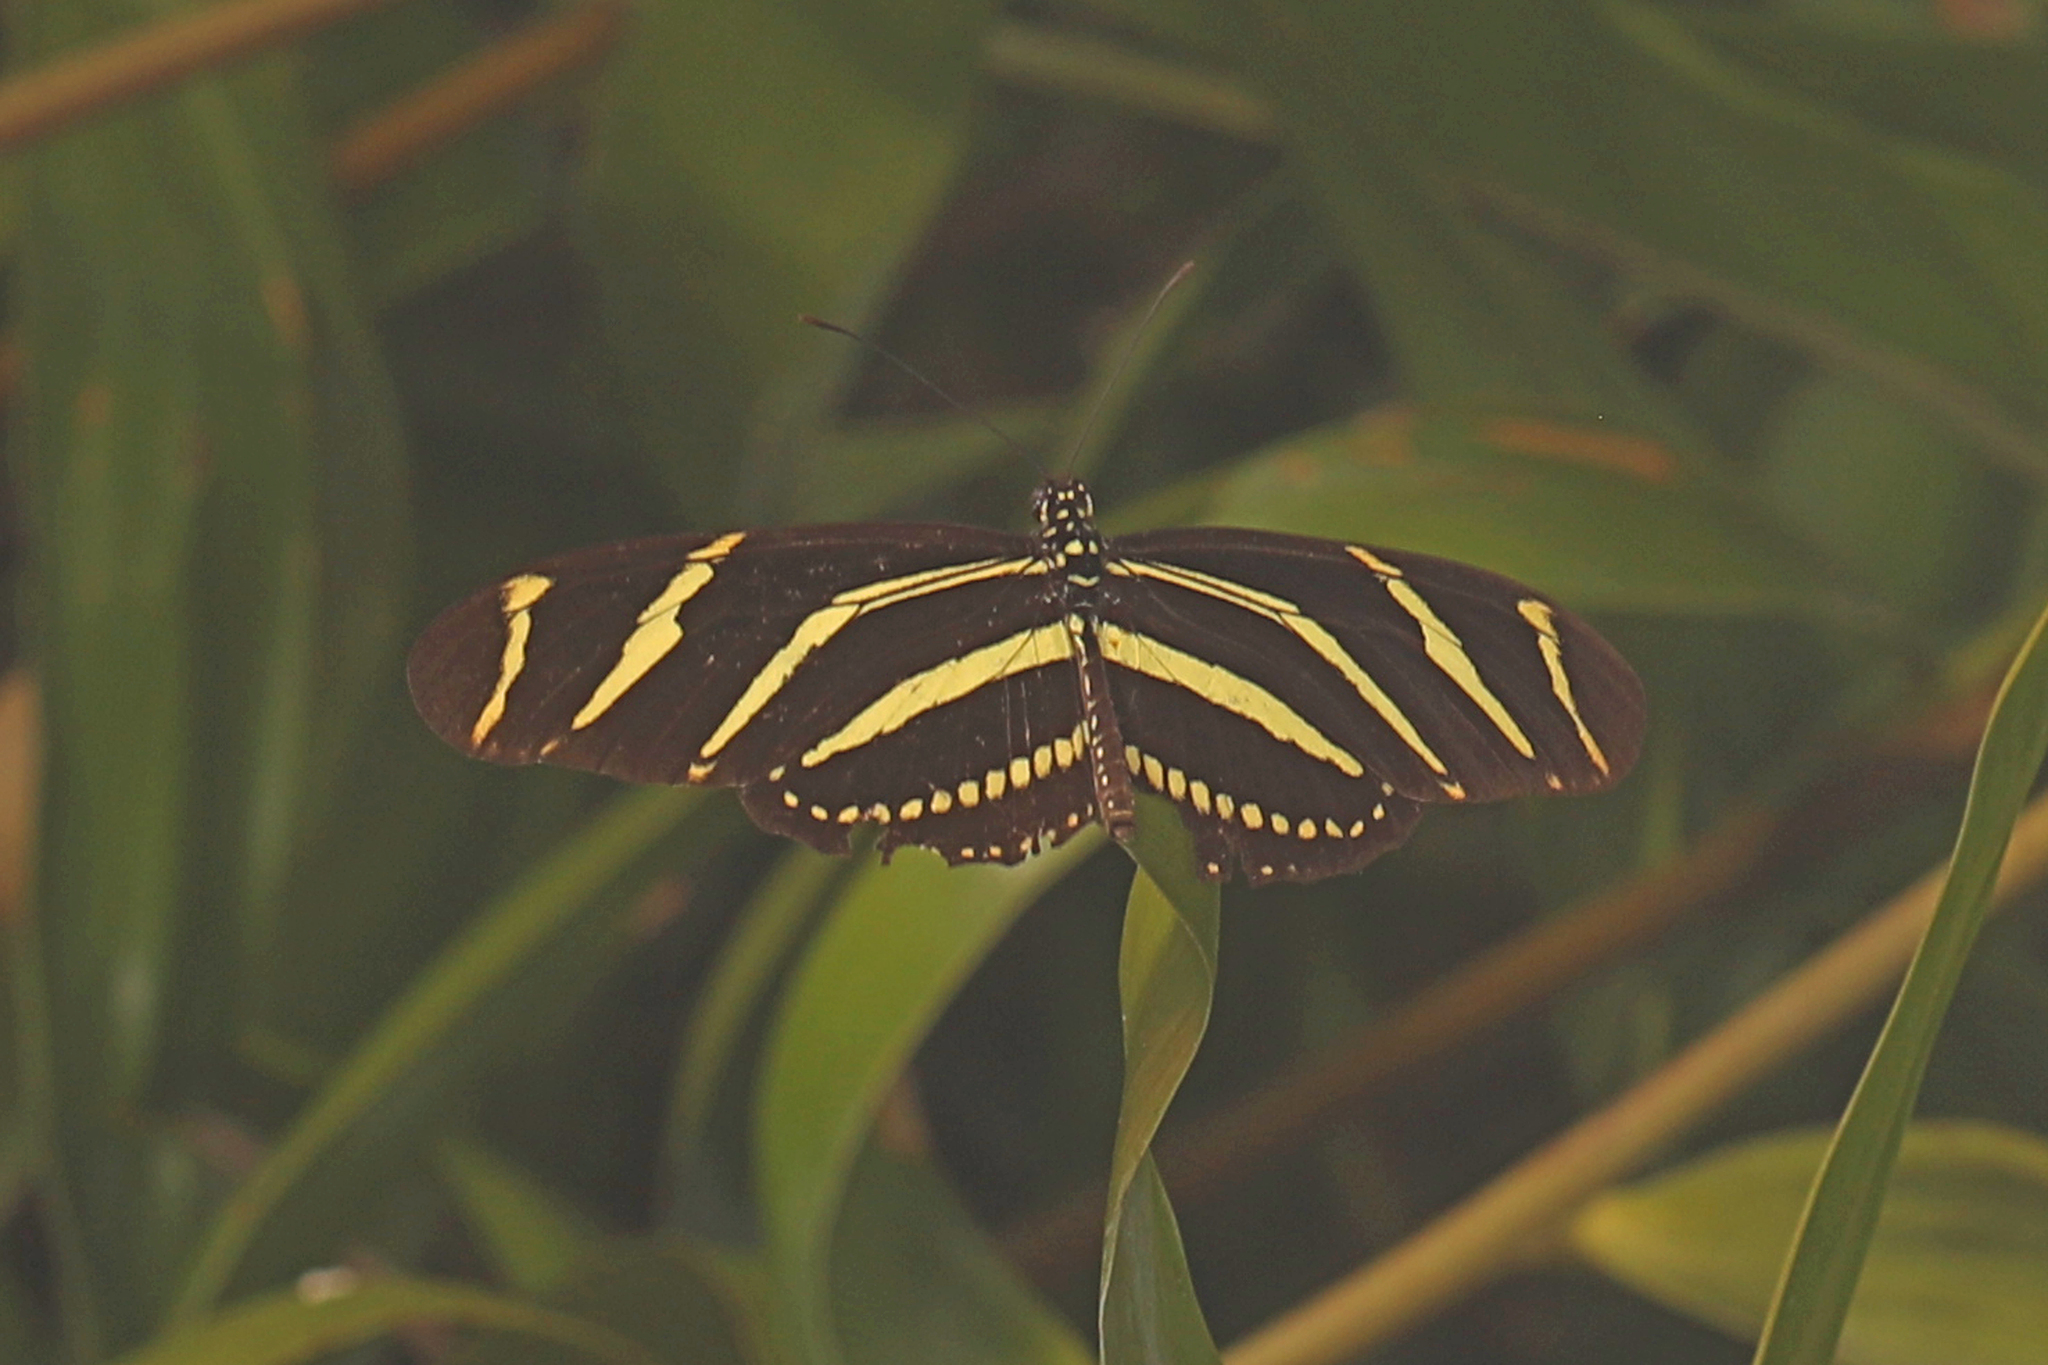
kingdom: Animalia
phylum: Arthropoda
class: Insecta
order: Lepidoptera
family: Nymphalidae
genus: Heliconius
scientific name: Heliconius charithonia
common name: Zebra long wing
